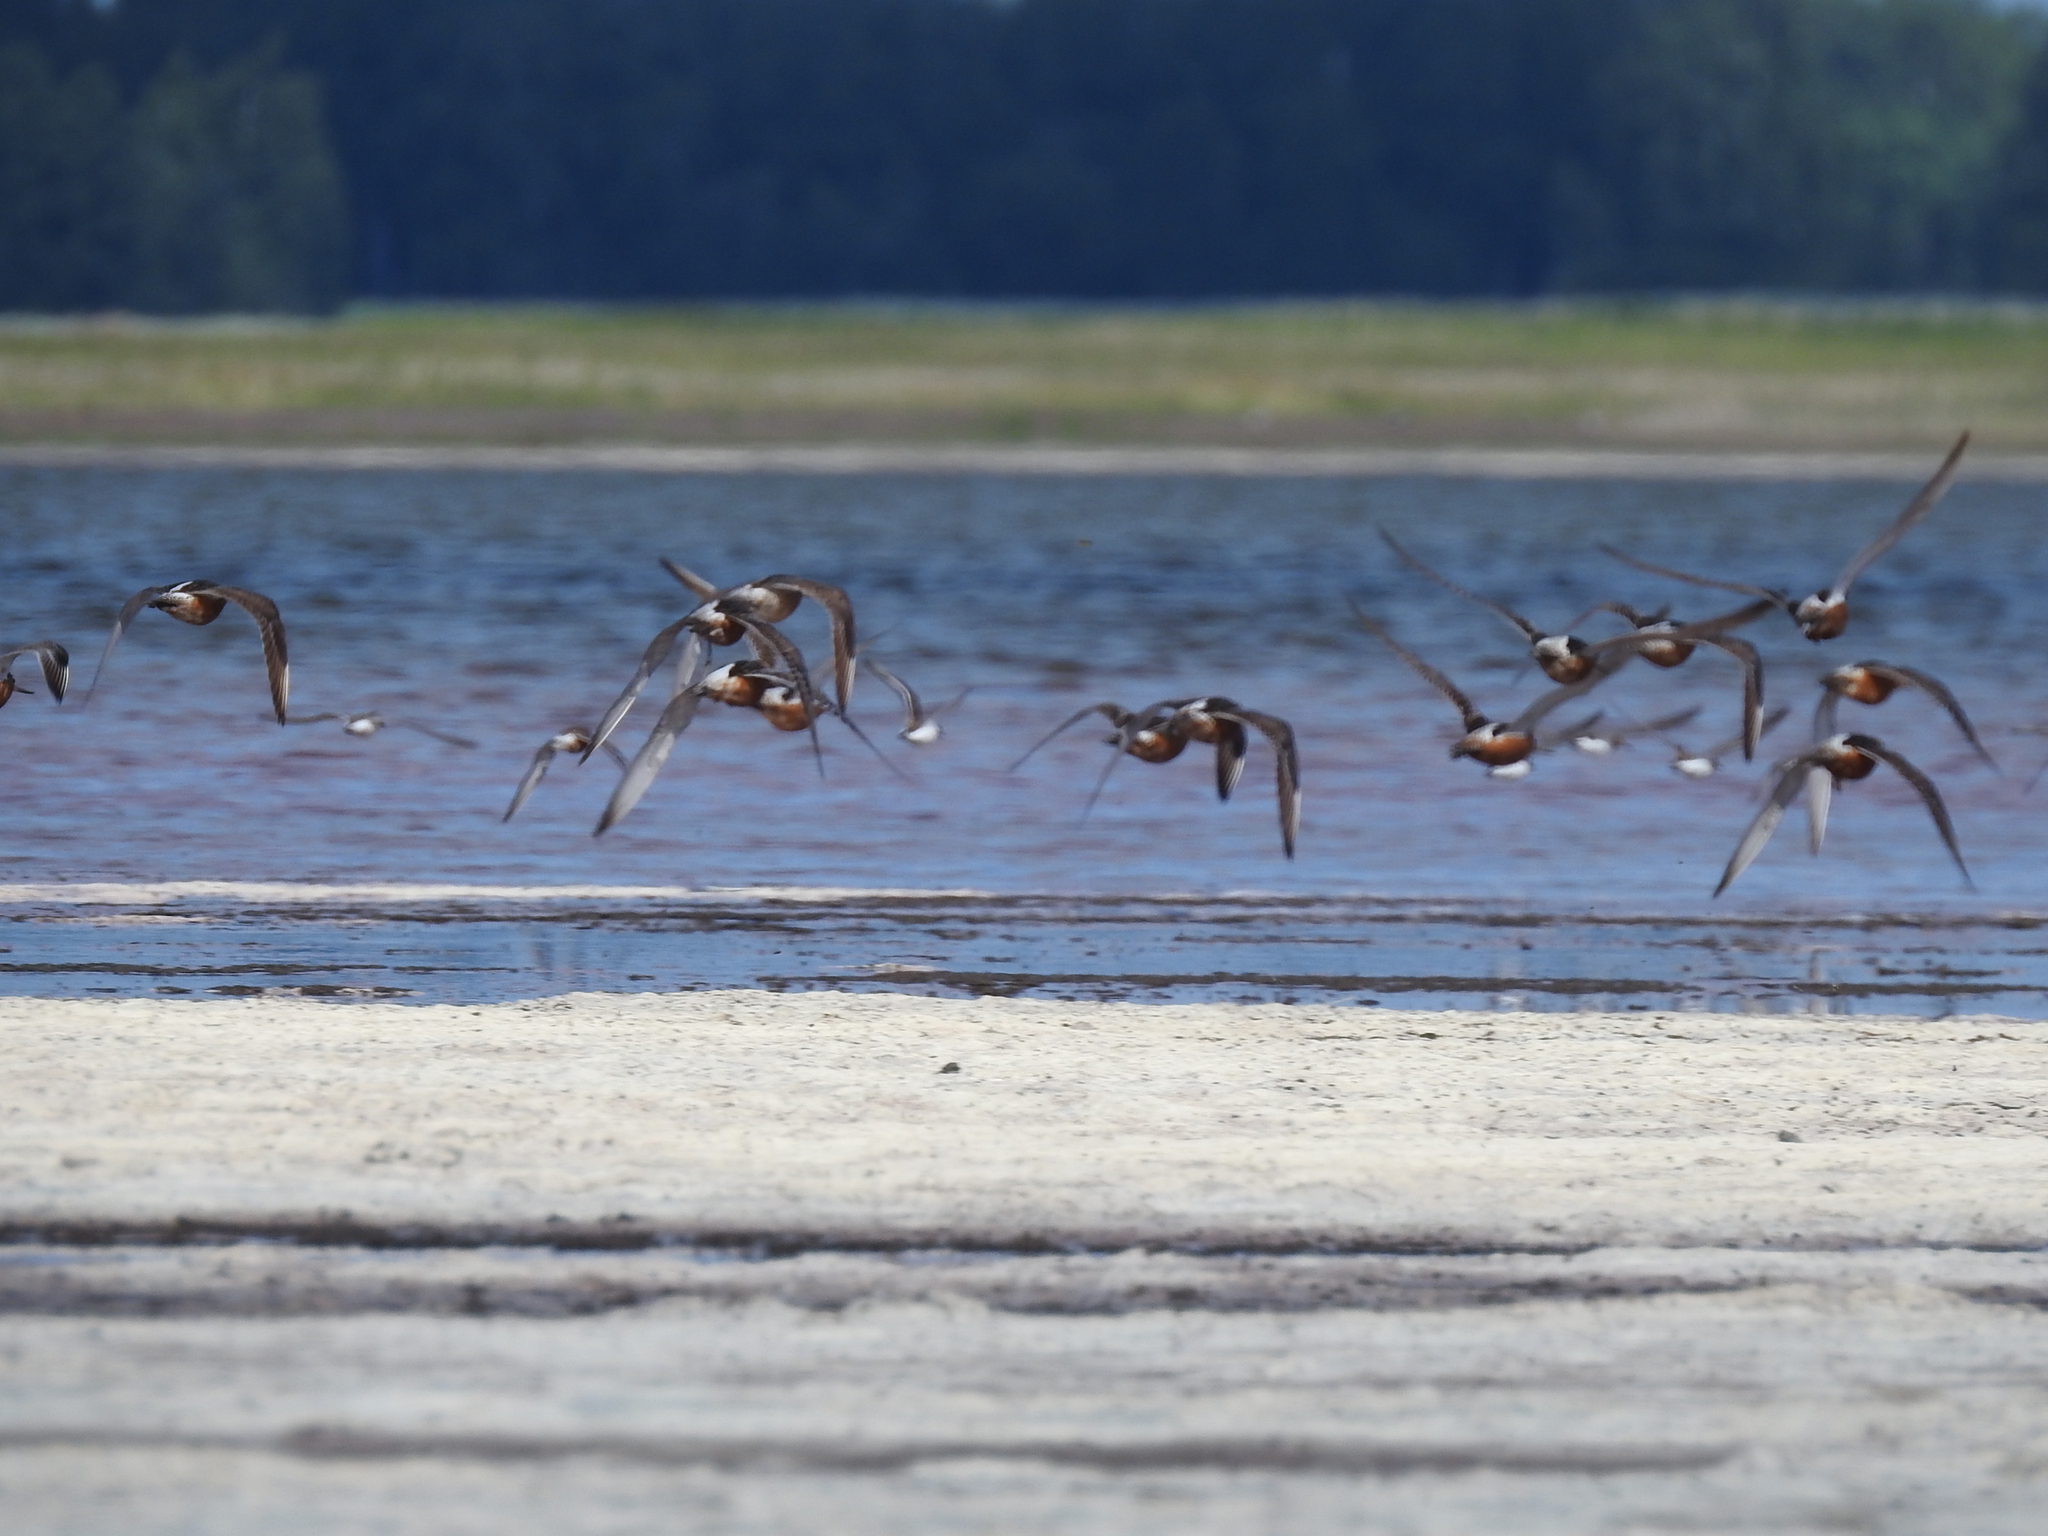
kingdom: Animalia
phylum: Chordata
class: Aves
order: Charadriiformes
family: Scolopacidae
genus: Limosa
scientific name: Limosa lapponica
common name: Bar-tailed godwit
